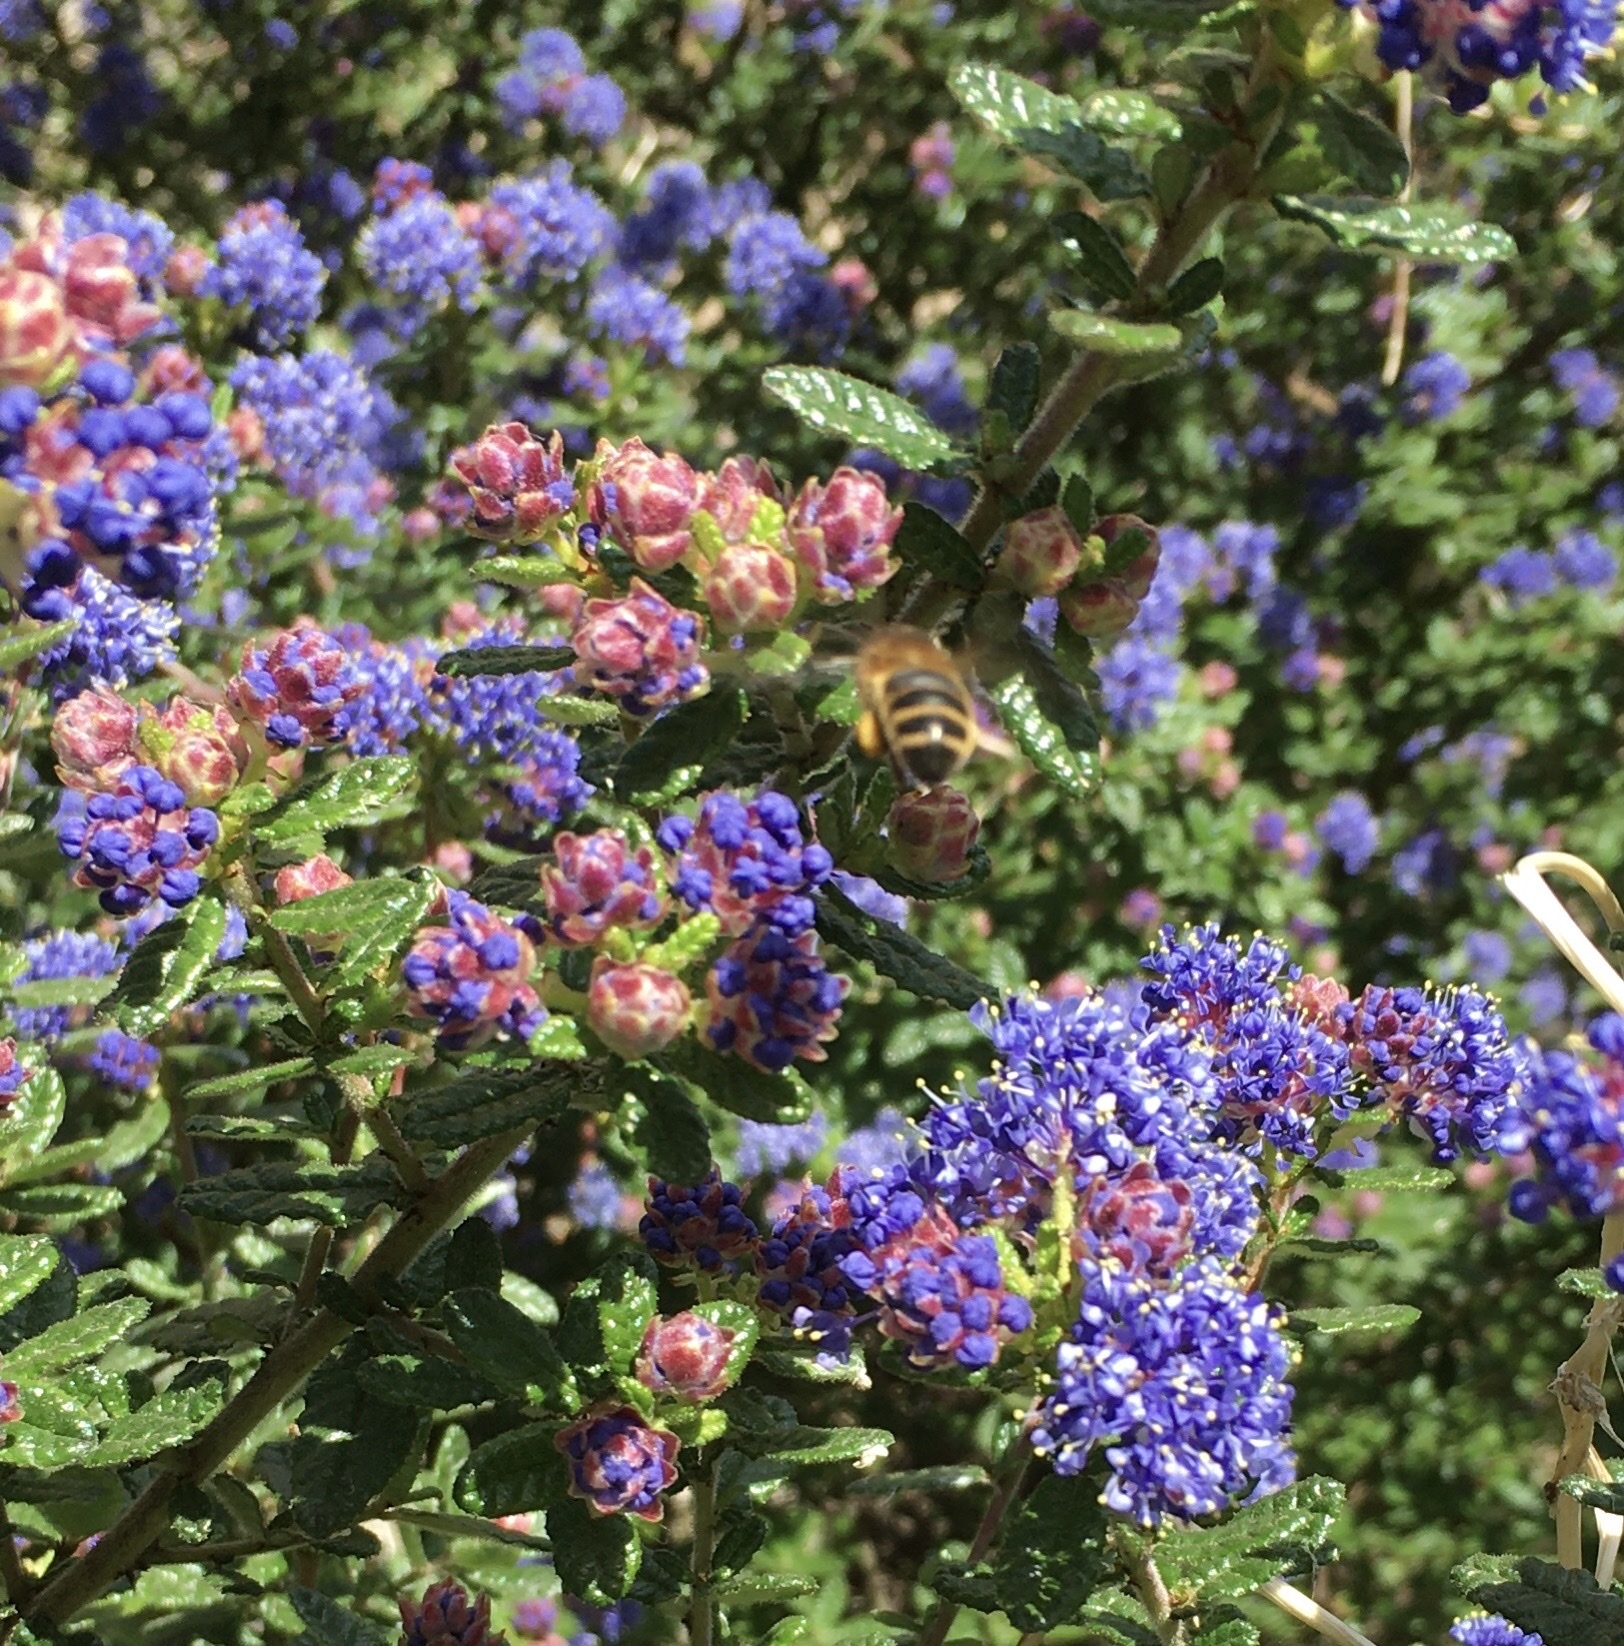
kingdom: Animalia
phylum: Arthropoda
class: Insecta
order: Hymenoptera
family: Apidae
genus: Apis
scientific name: Apis mellifera
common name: Honey bee
